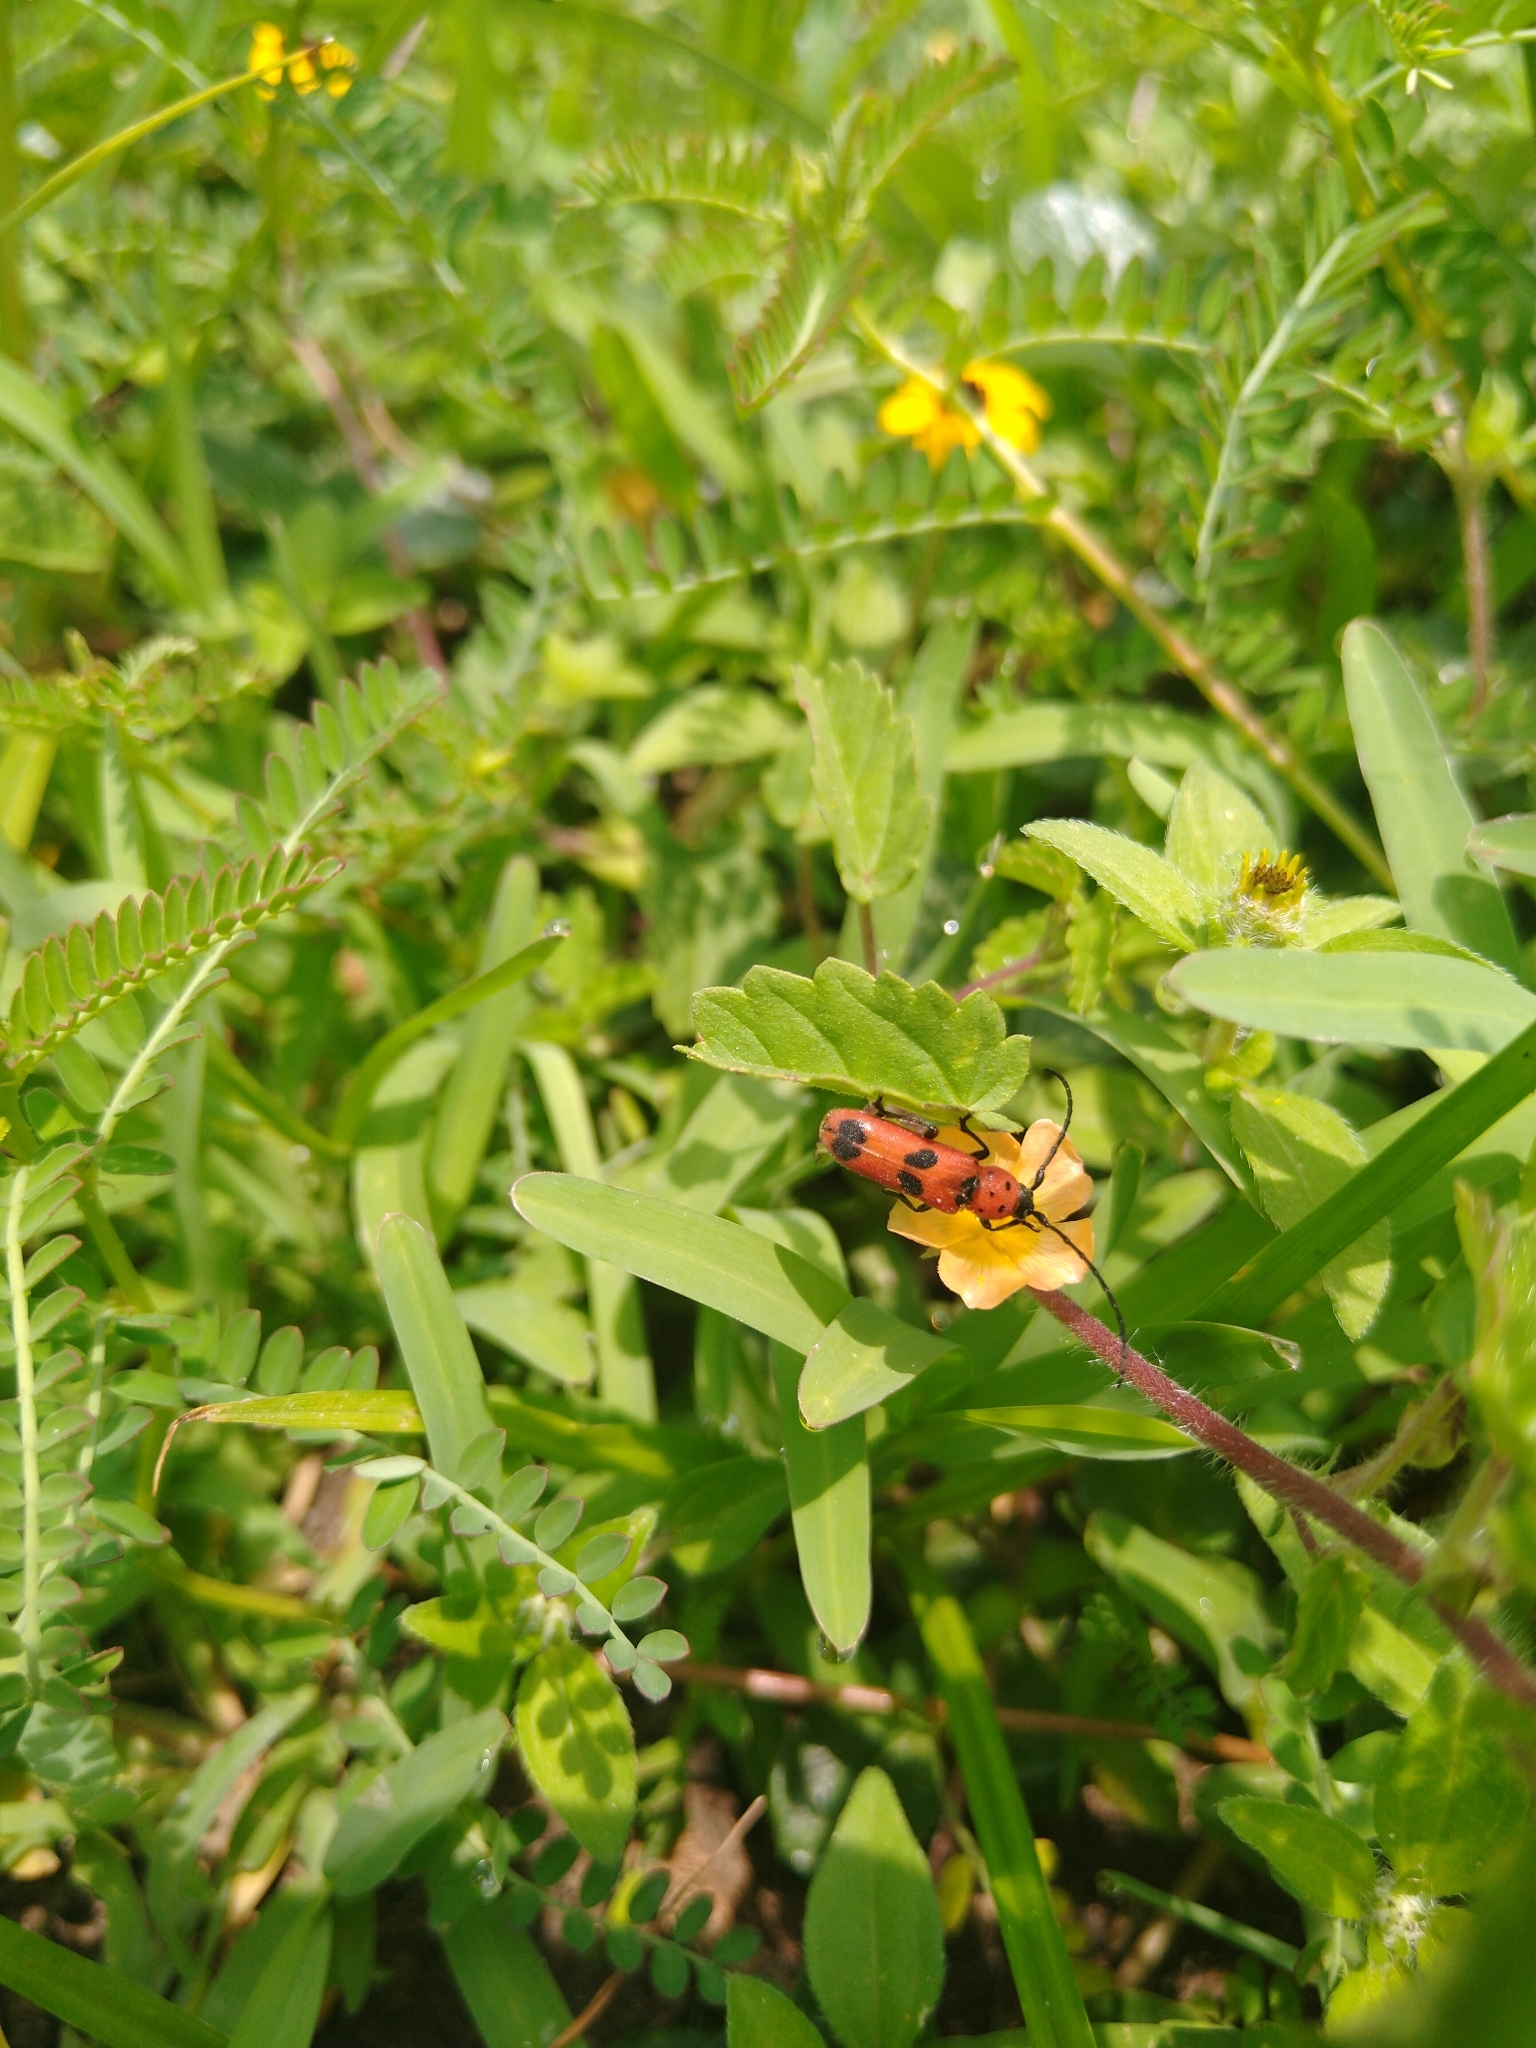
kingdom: Animalia
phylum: Arthropoda
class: Insecta
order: Coleoptera
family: Cerambycidae
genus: Tylosis
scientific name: Tylosis puncticollis
